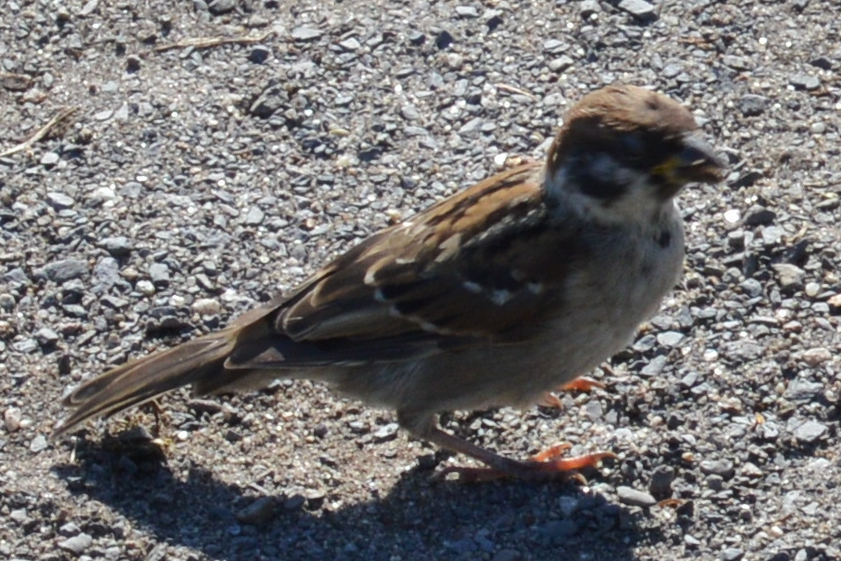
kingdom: Animalia
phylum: Chordata
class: Aves
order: Passeriformes
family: Passeridae
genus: Passer
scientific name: Passer montanus
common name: Eurasian tree sparrow
